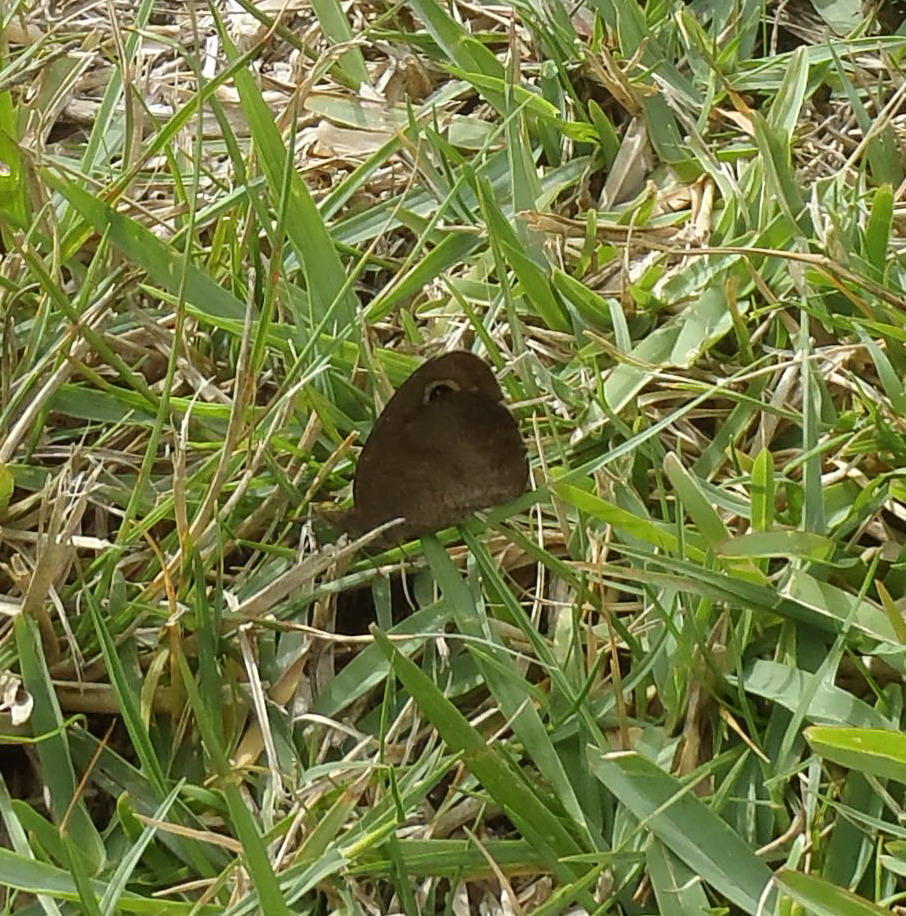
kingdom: Animalia
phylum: Arthropoda
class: Insecta
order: Lepidoptera
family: Nymphalidae
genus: Cassionympha
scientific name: Cassionympha cassius
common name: Rainforest brown
